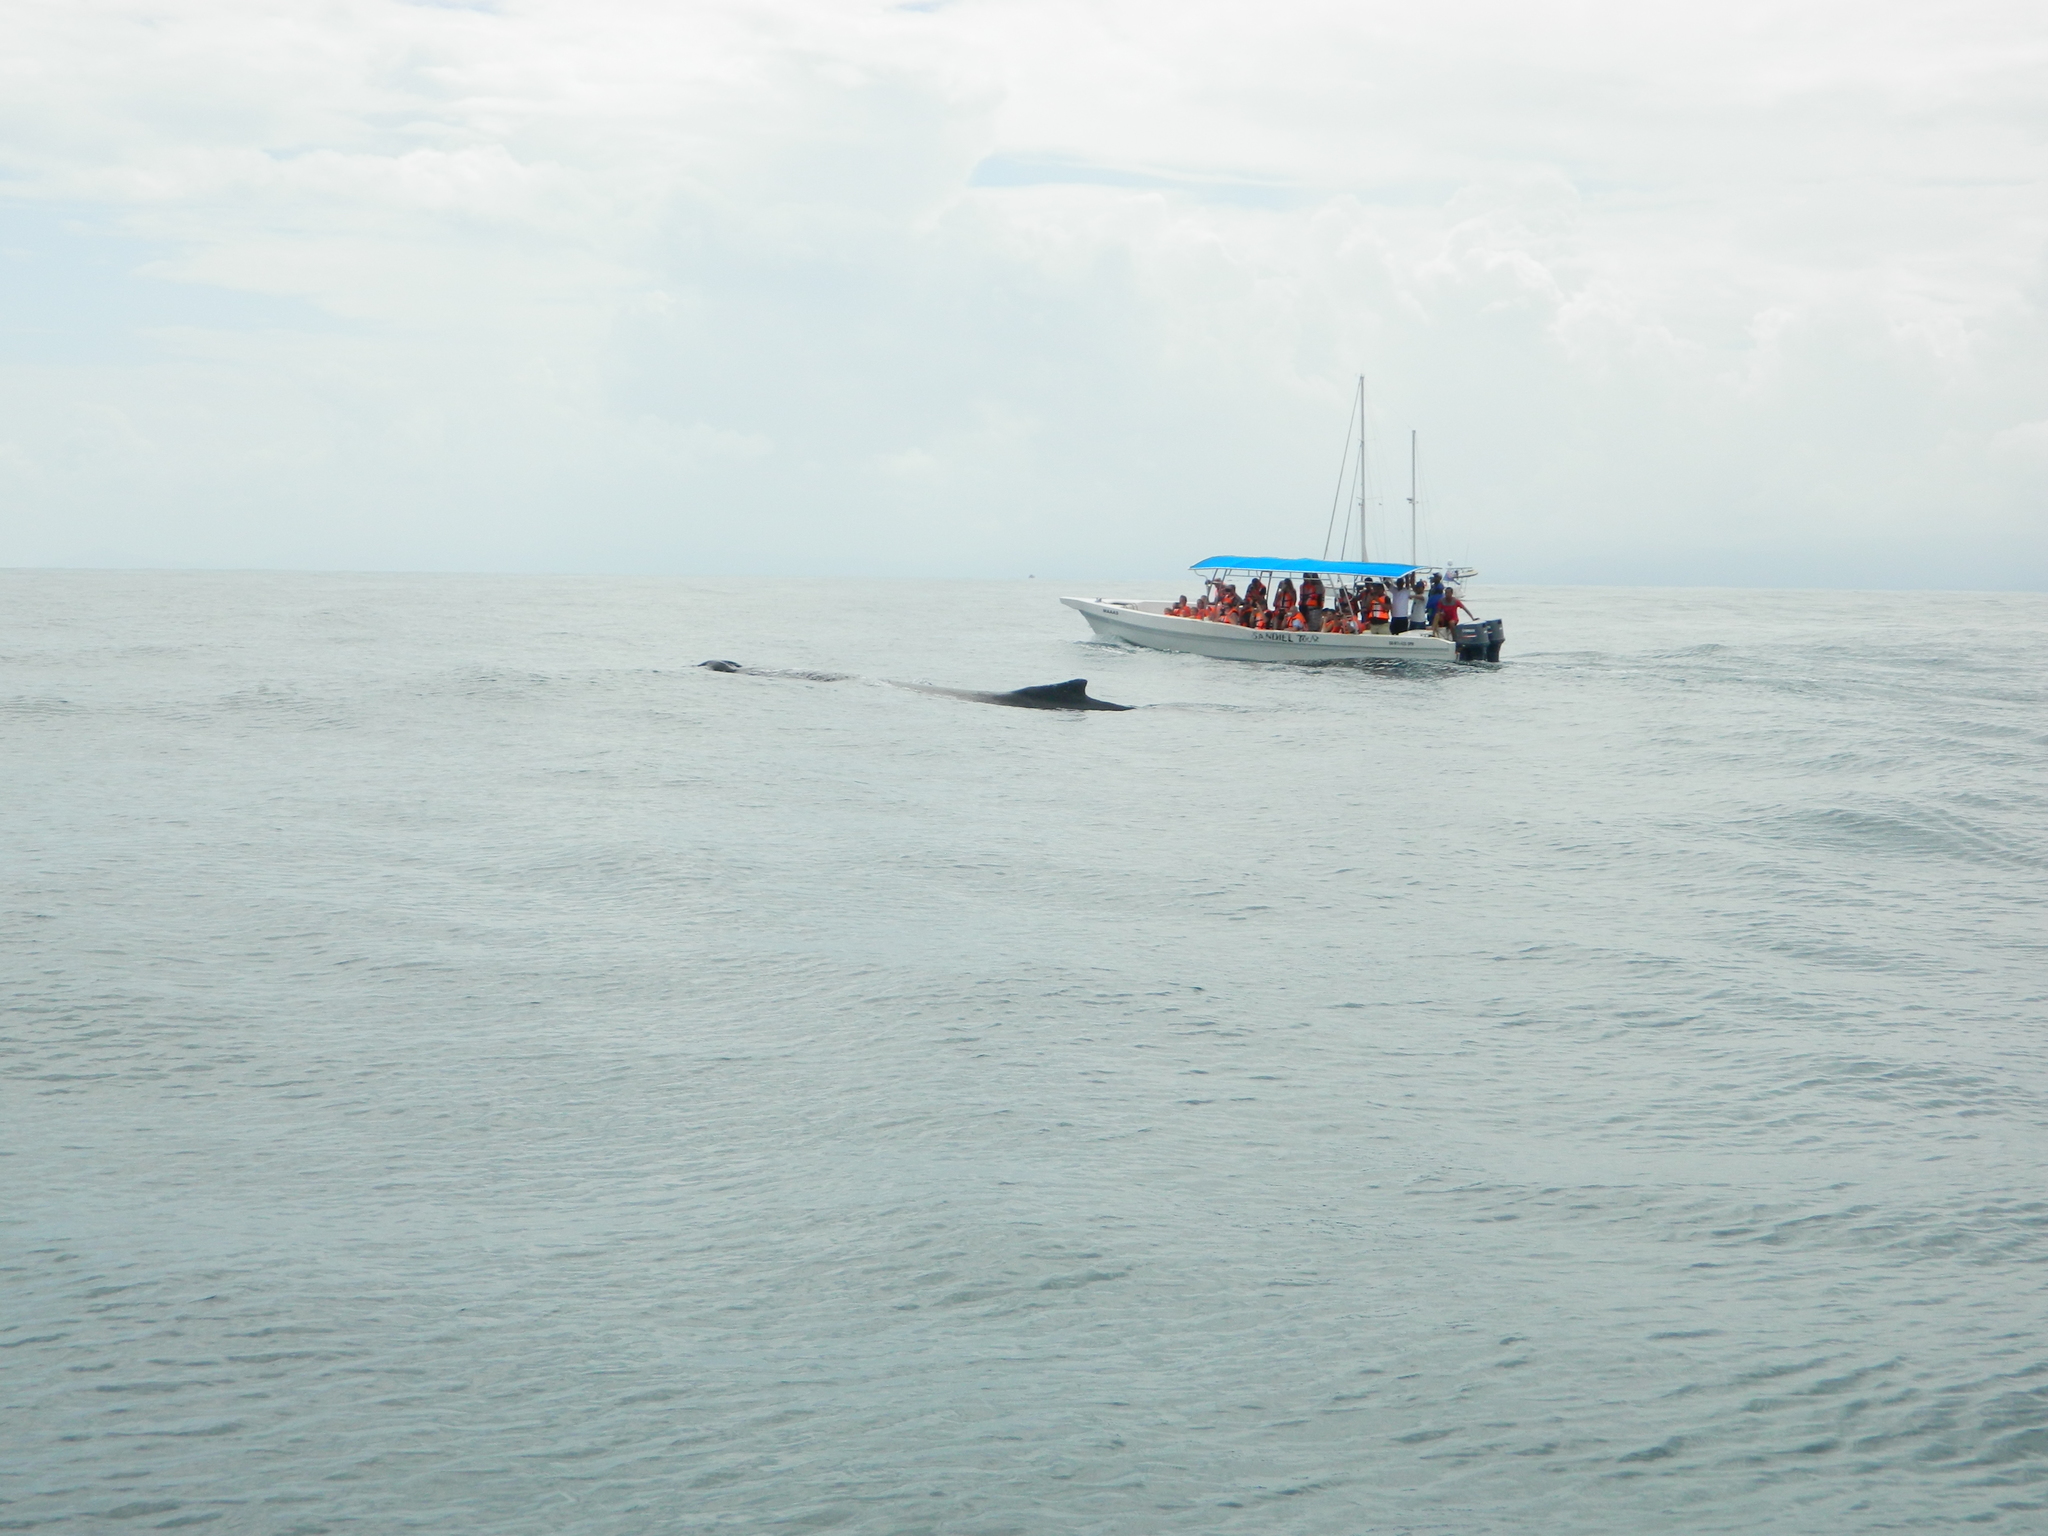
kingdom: Animalia
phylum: Chordata
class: Mammalia
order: Cetacea
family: Balaenopteridae
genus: Megaptera
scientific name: Megaptera novaeangliae
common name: Humpback whale
